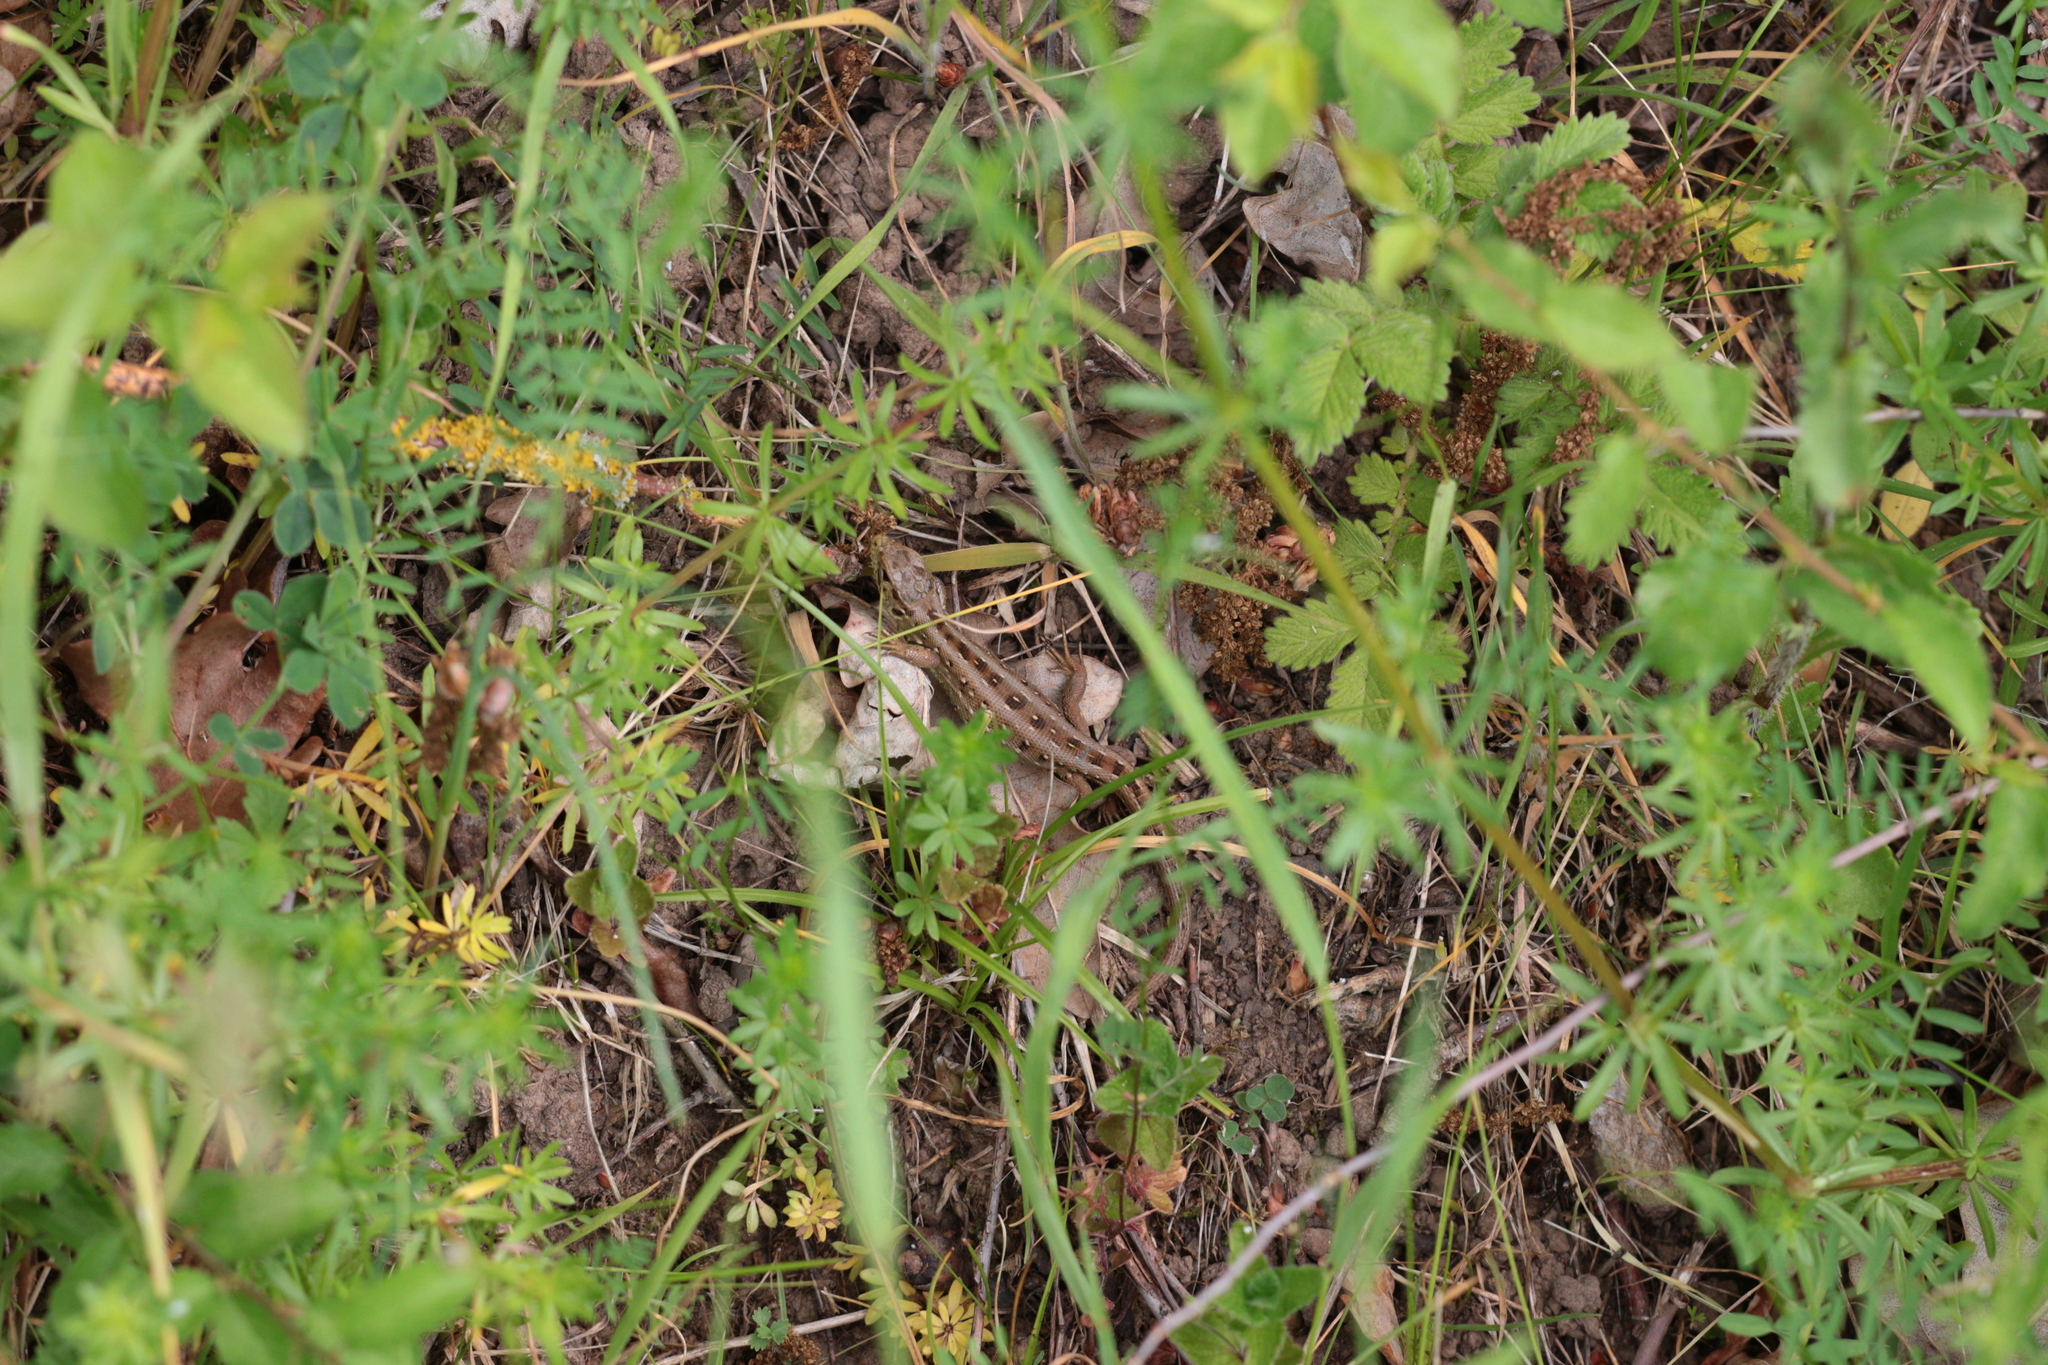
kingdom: Animalia
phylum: Chordata
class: Squamata
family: Lacertidae
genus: Lacerta
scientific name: Lacerta agilis
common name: Sand lizard
